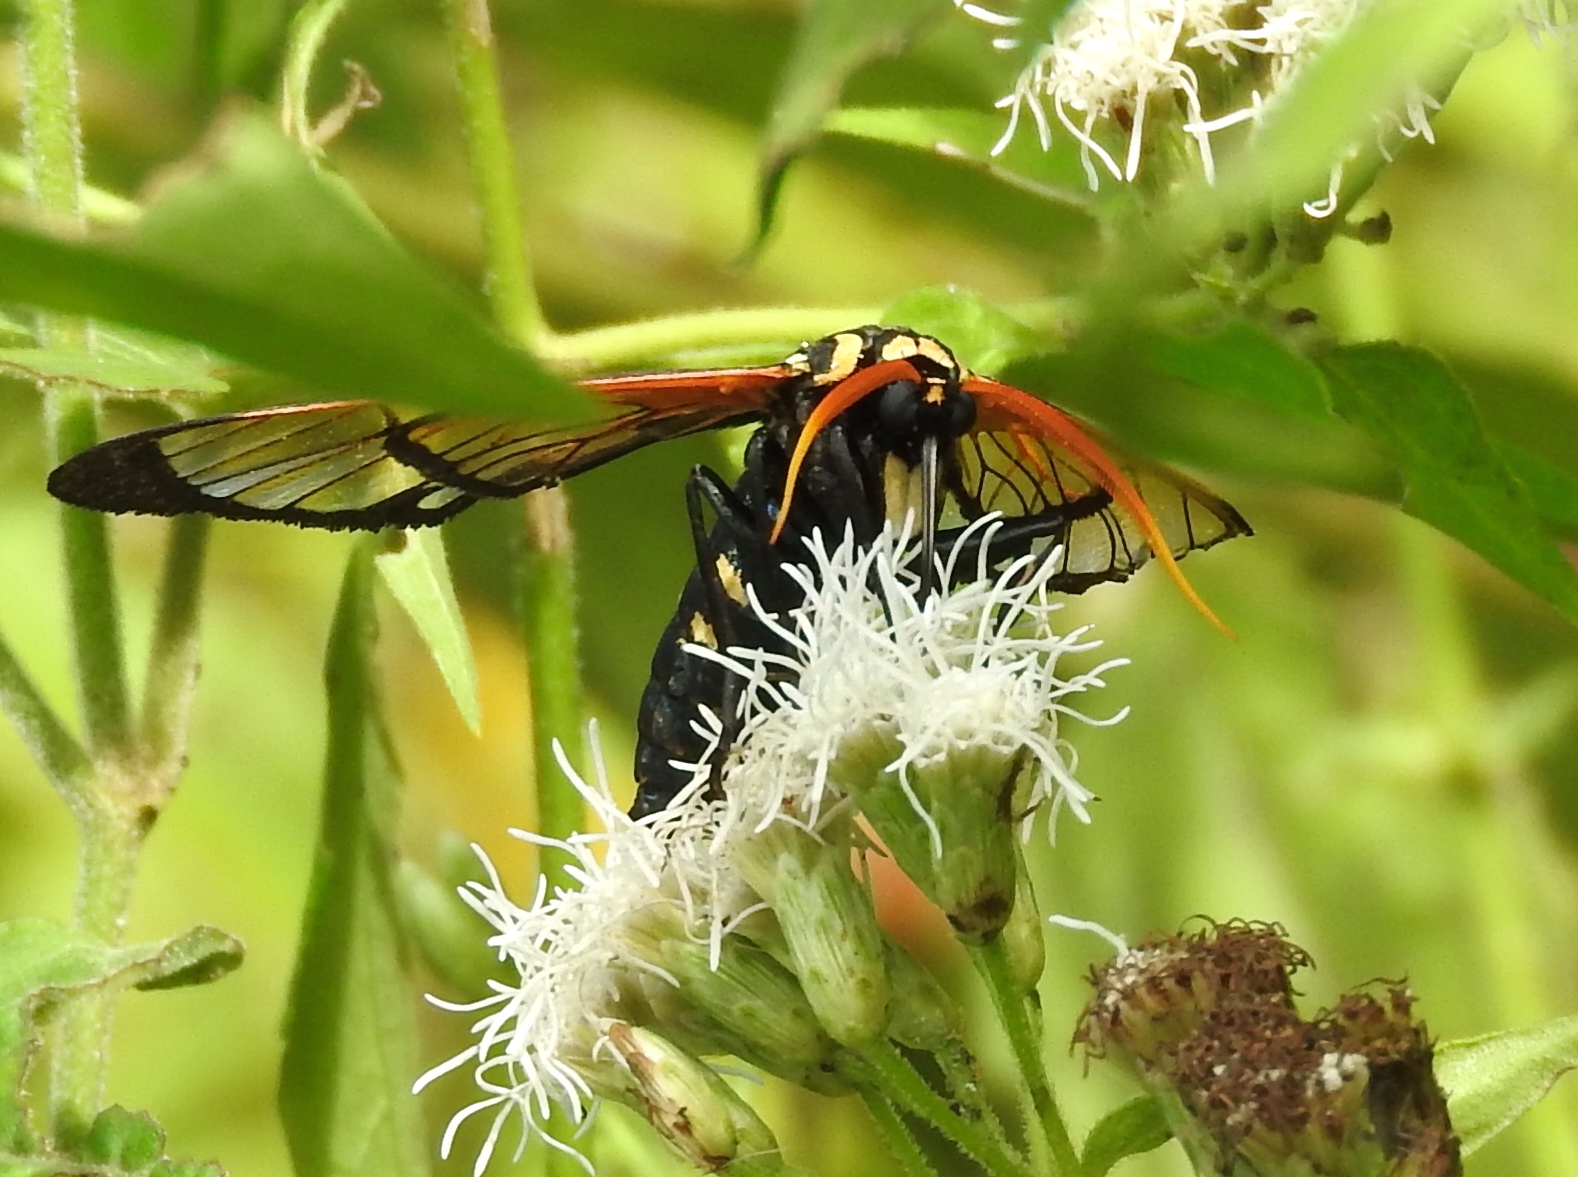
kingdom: Animalia
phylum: Arthropoda
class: Insecta
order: Lepidoptera
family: Erebidae
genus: Isanthrene
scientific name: Isanthrene
